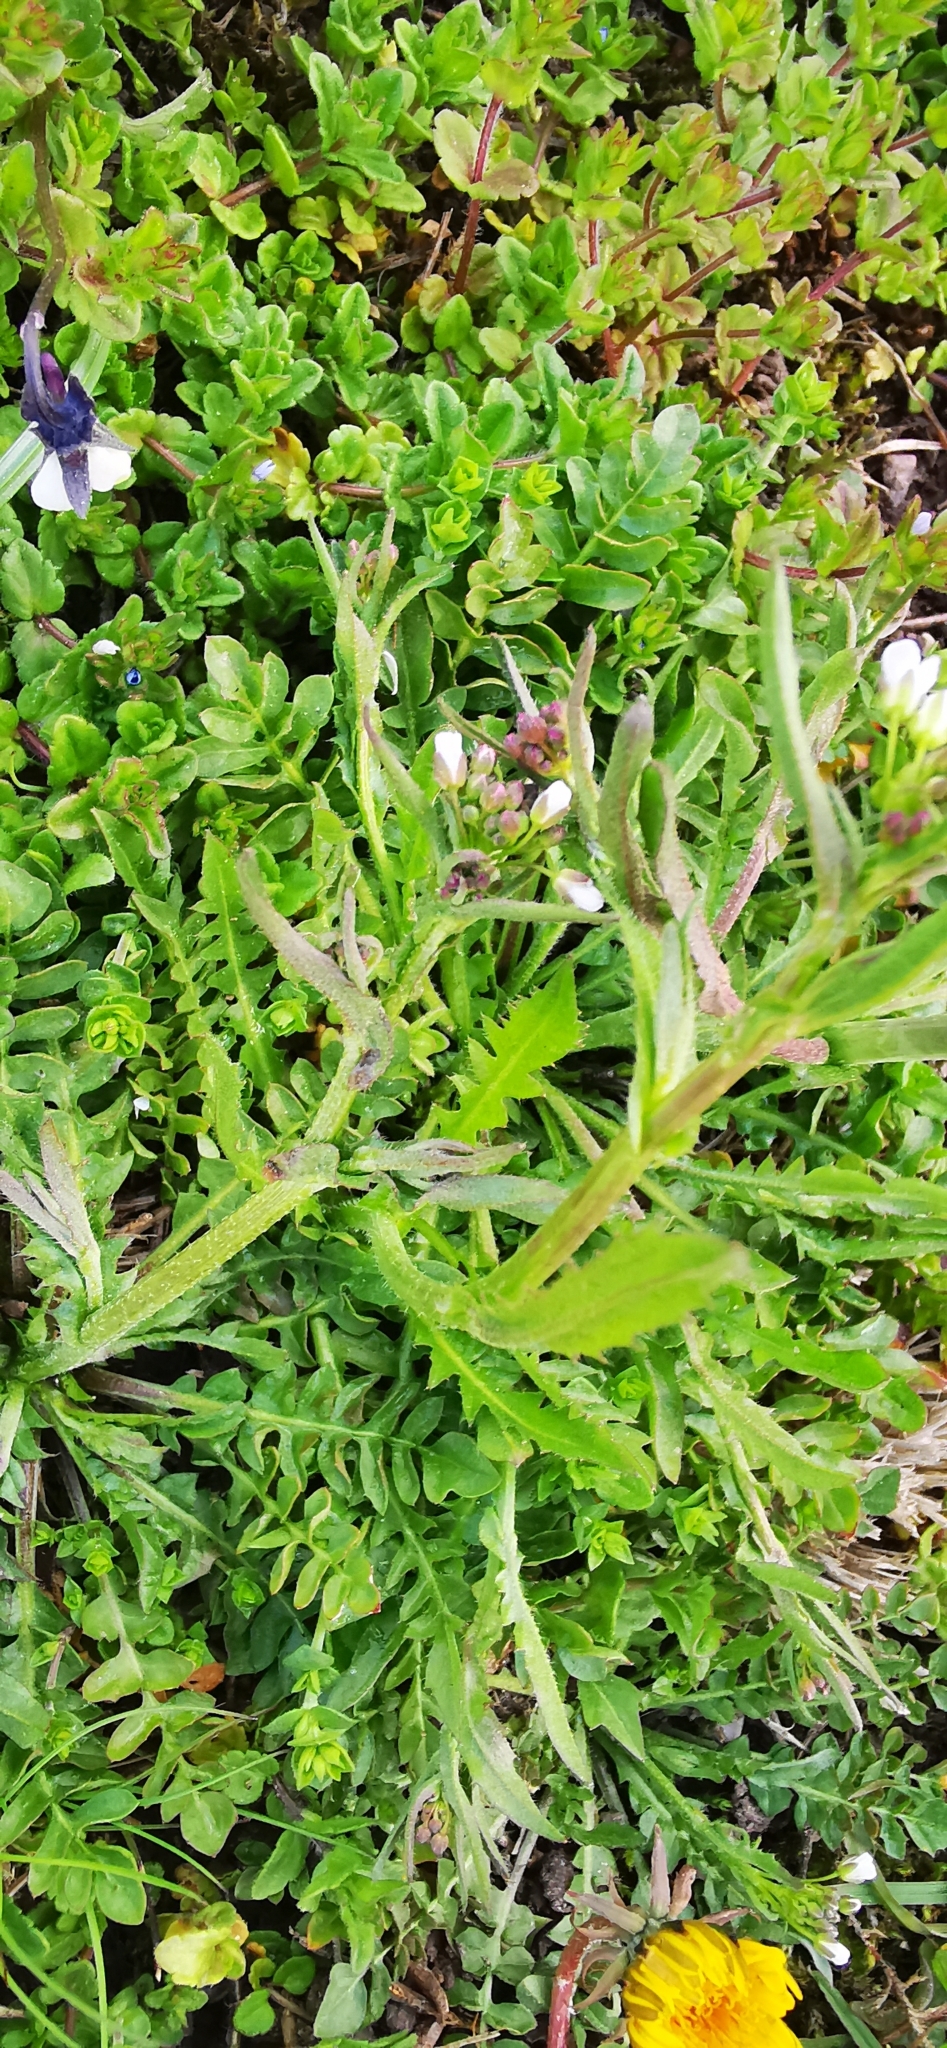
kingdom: Plantae
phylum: Tracheophyta
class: Magnoliopsida
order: Brassicales
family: Brassicaceae
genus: Capsella
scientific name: Capsella bursa-pastoris
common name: Shepherd's purse
